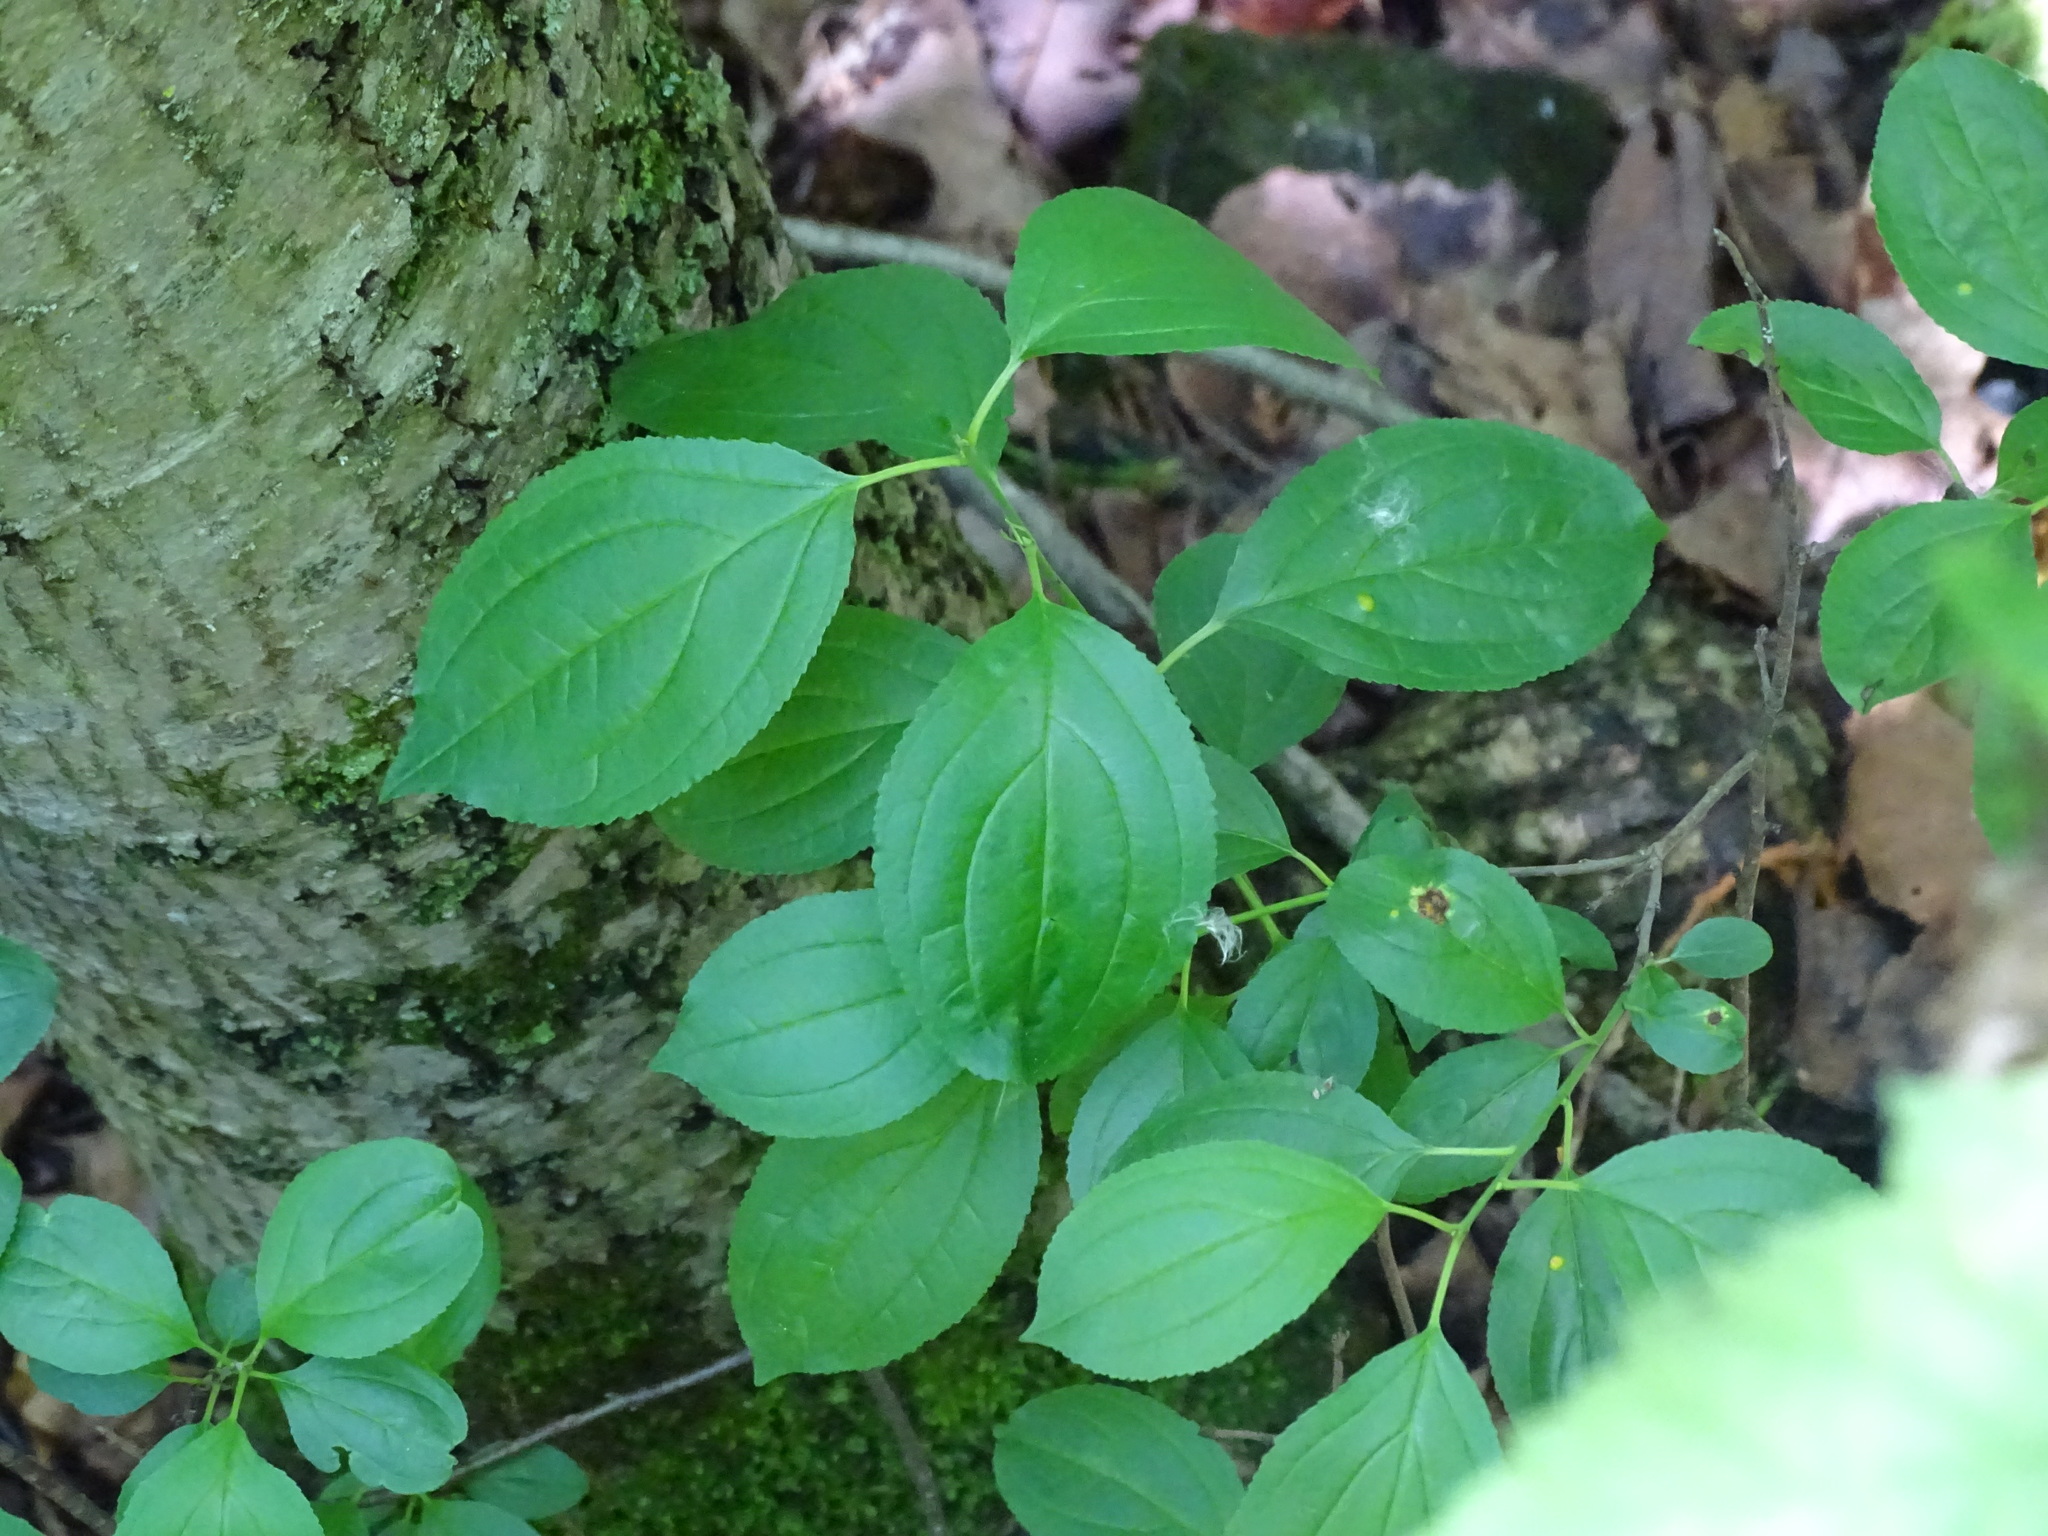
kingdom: Plantae
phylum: Tracheophyta
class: Magnoliopsida
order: Rosales
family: Rhamnaceae
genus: Rhamnus
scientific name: Rhamnus cathartica
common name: Common buckthorn
